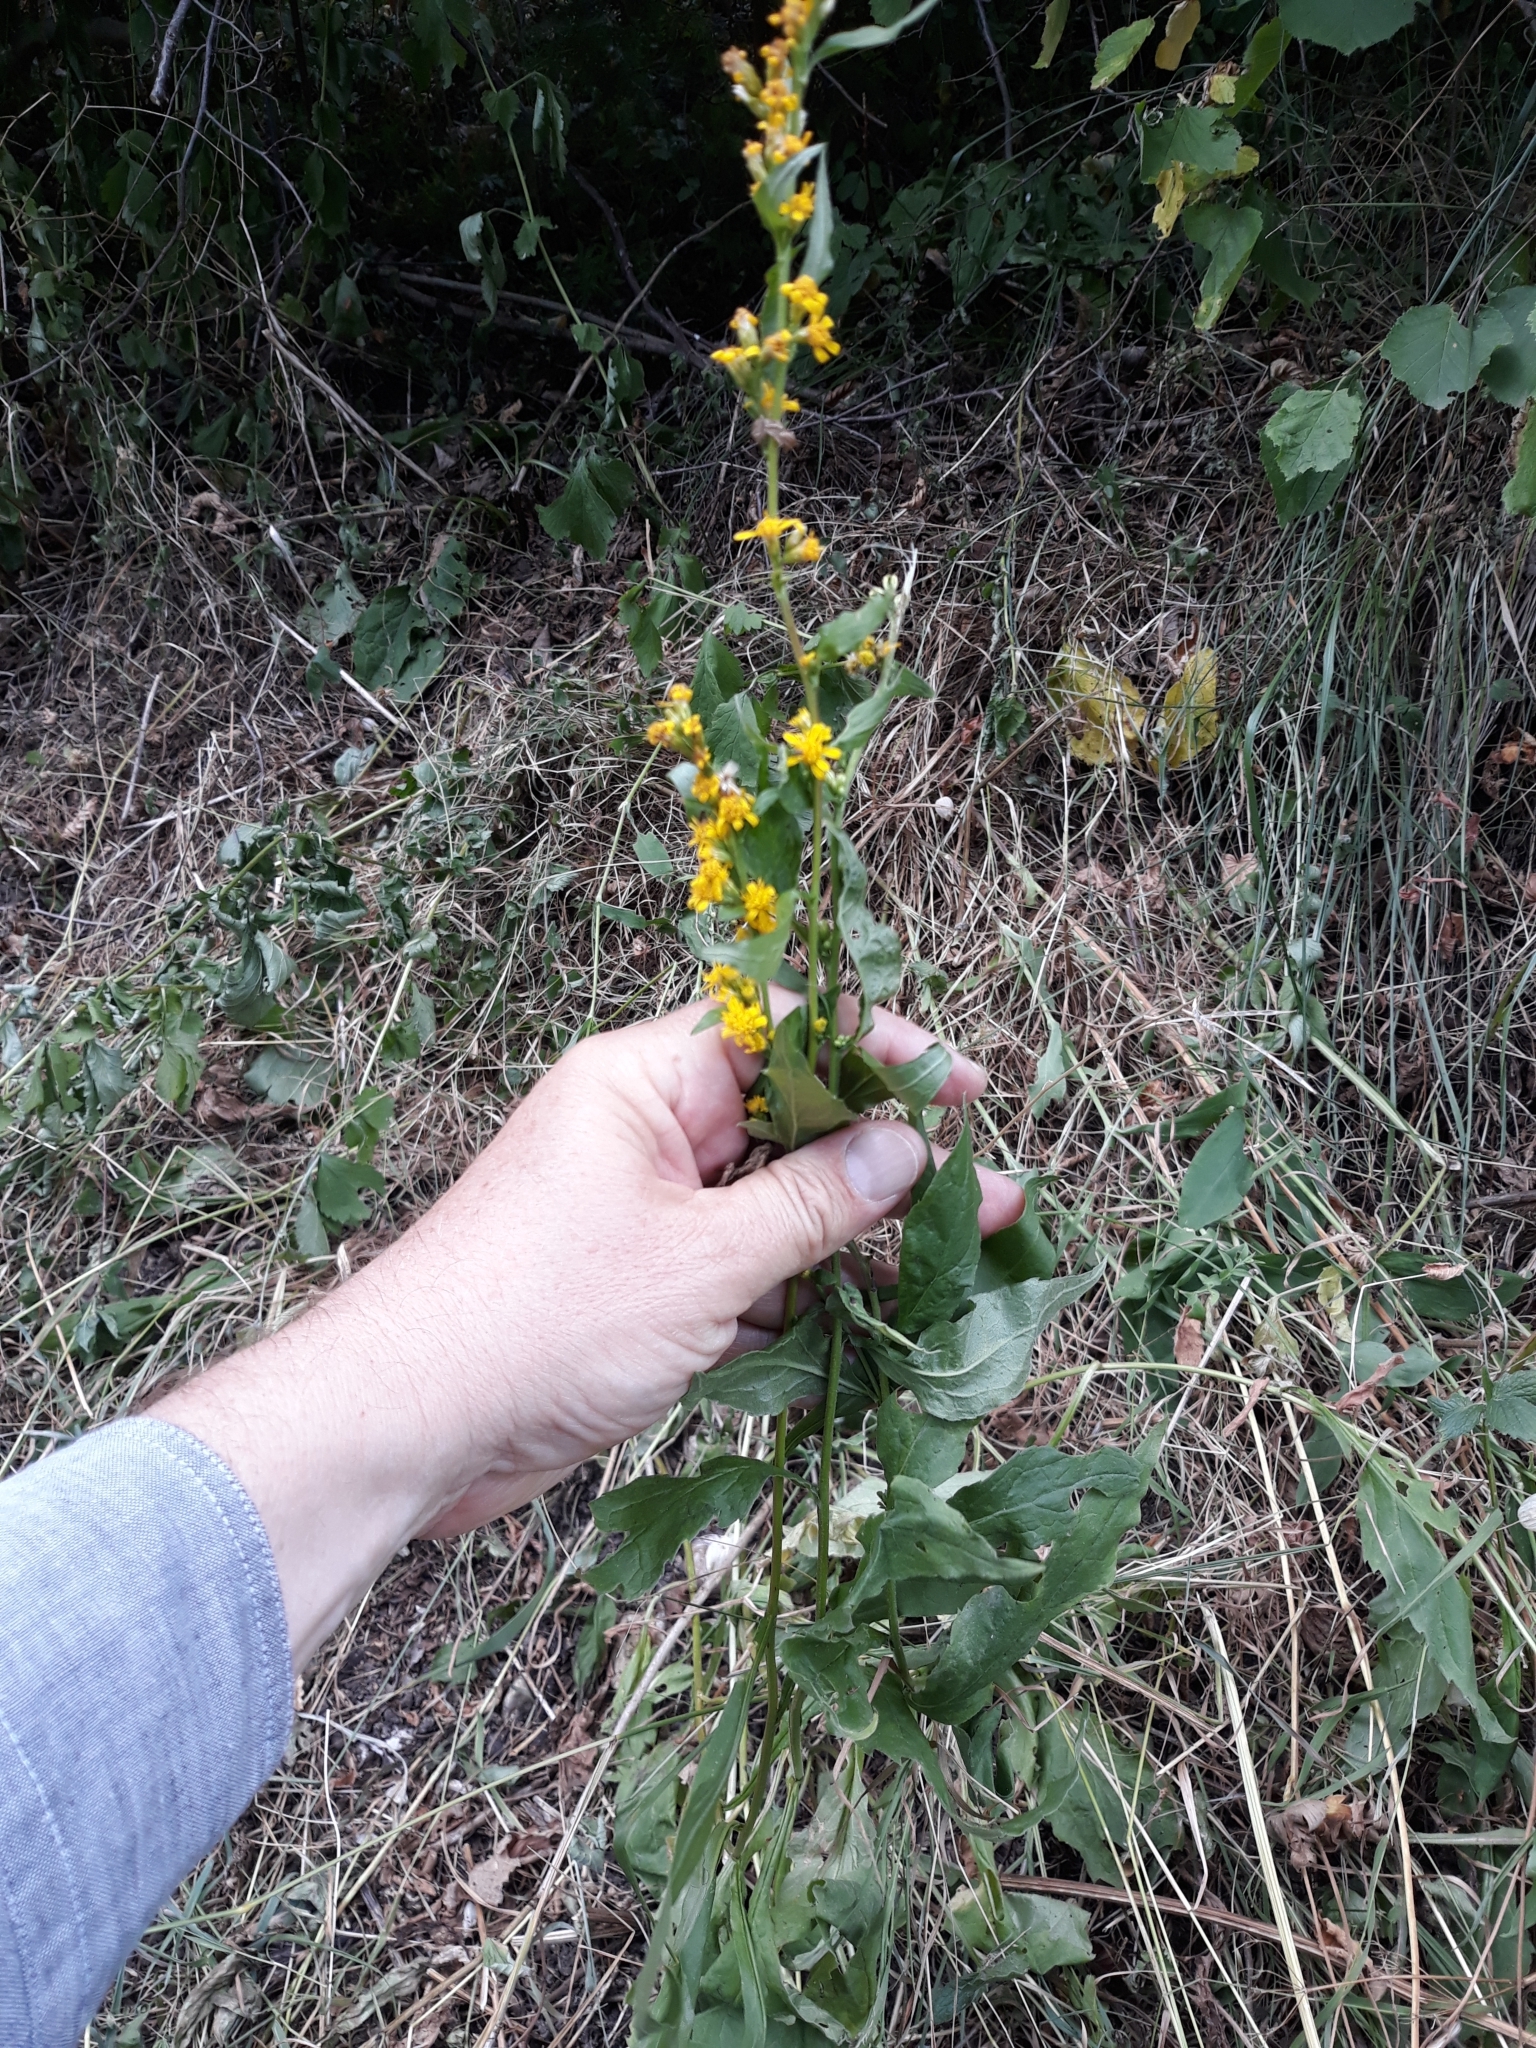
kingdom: Plantae
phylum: Tracheophyta
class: Magnoliopsida
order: Asterales
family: Asteraceae
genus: Solidago
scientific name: Solidago virgaurea
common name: Goldenrod
